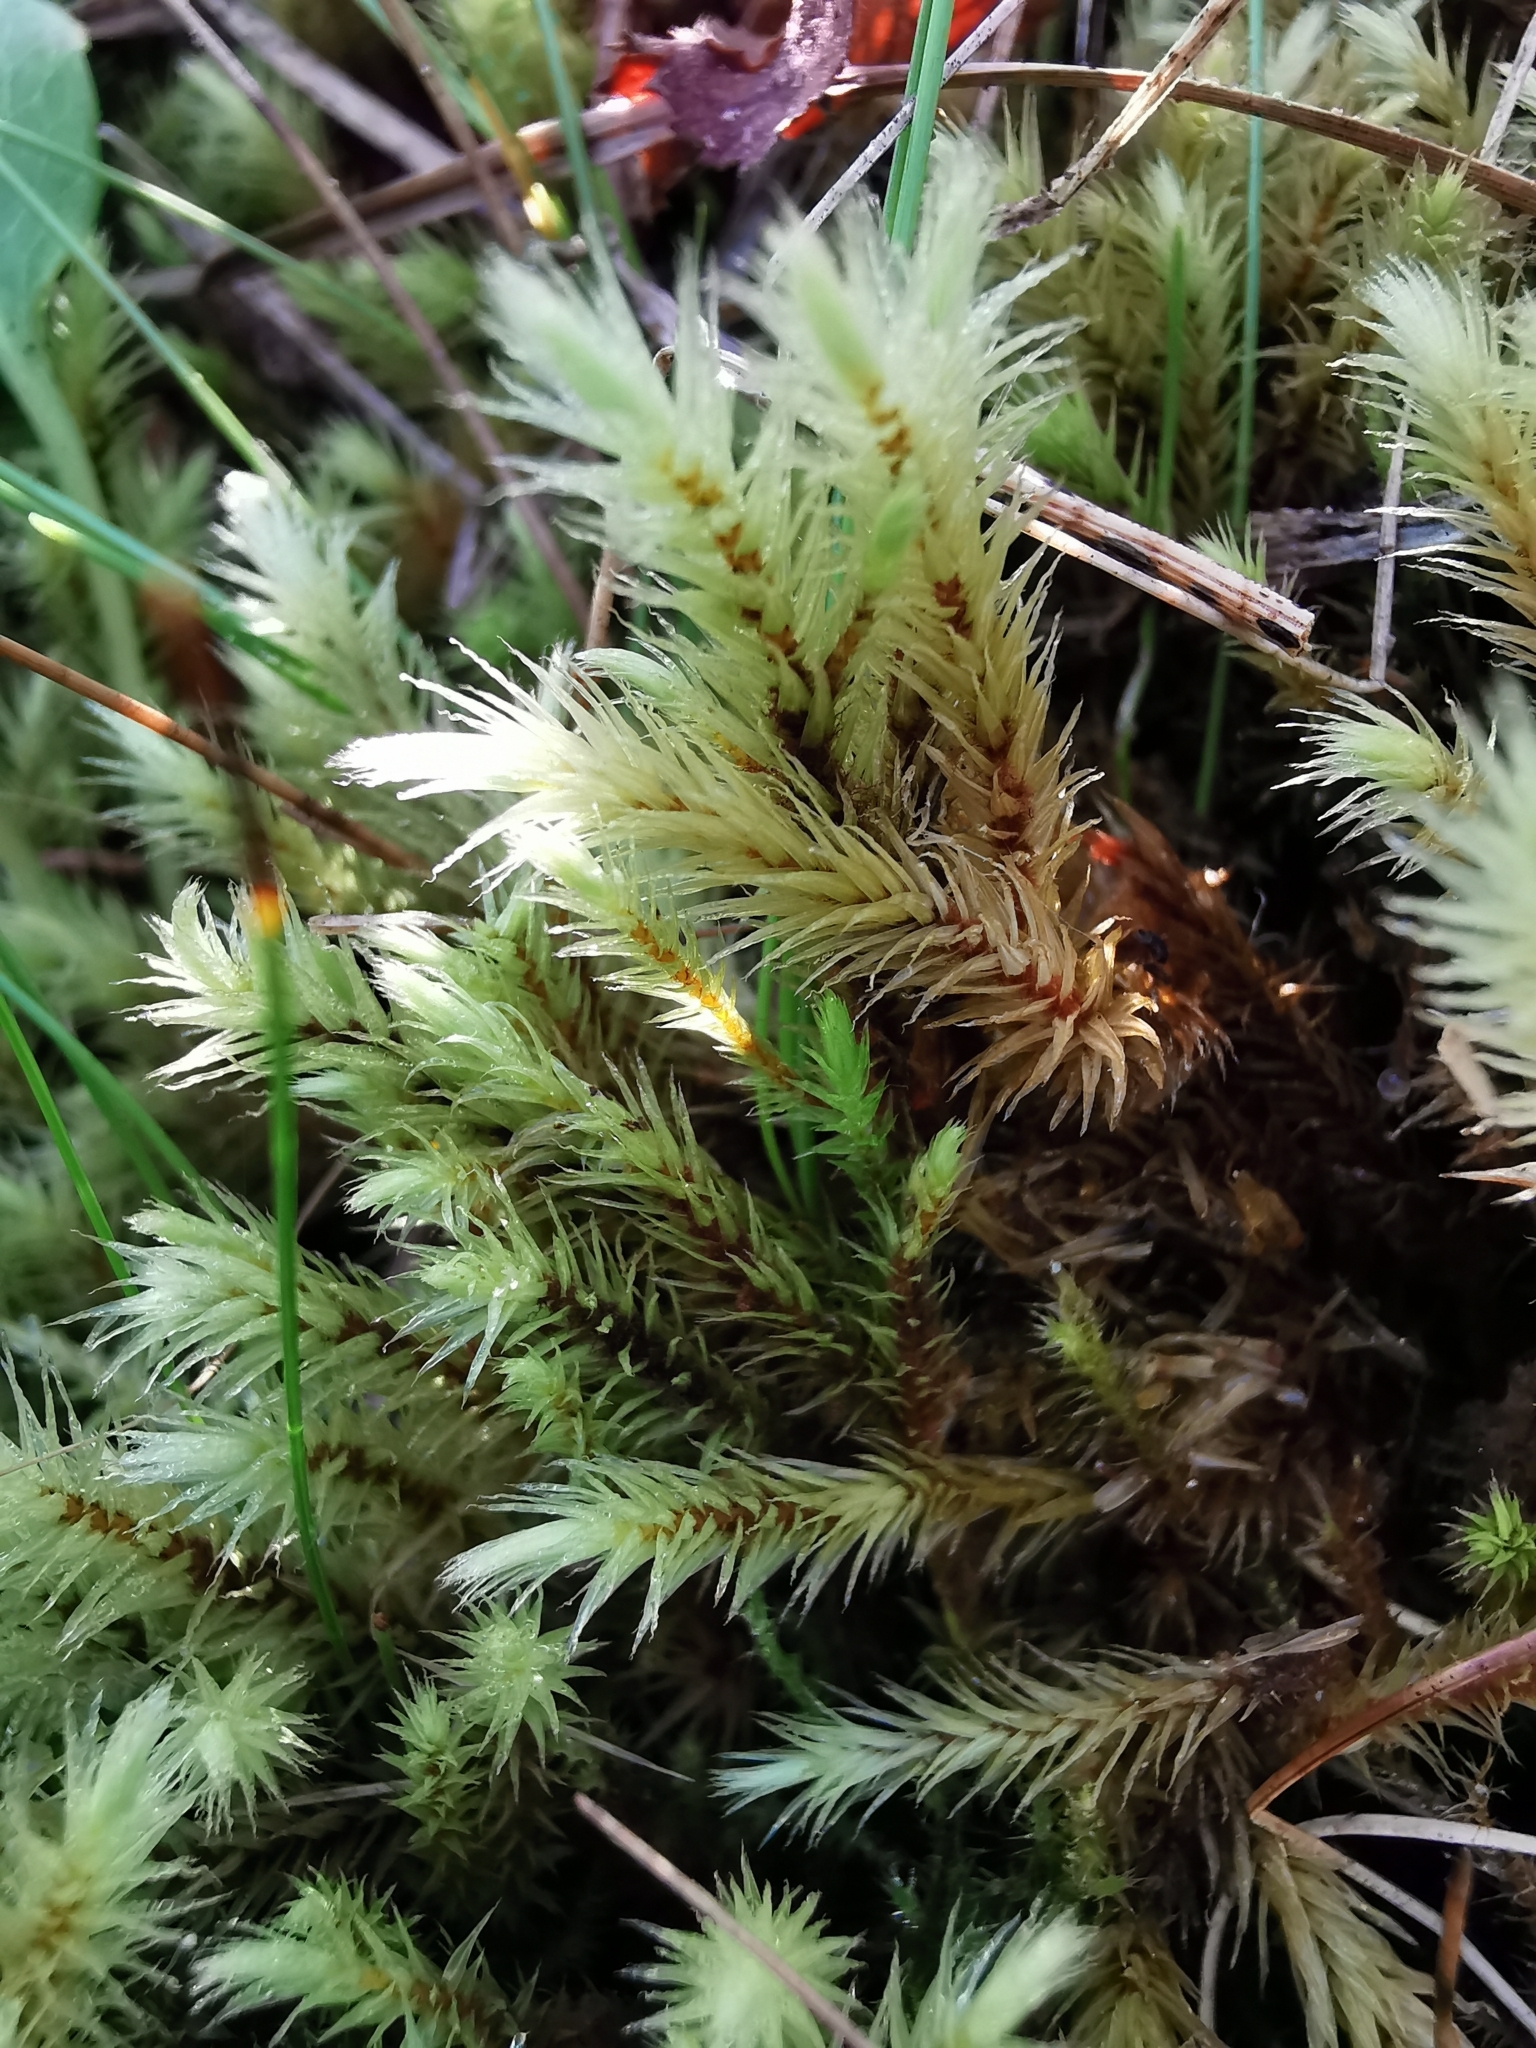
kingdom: Plantae
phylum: Bryophyta
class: Bryopsida
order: Aulacomniales
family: Aulacomniaceae
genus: Aulacomnium
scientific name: Aulacomnium palustre
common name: Bog groove-moss
